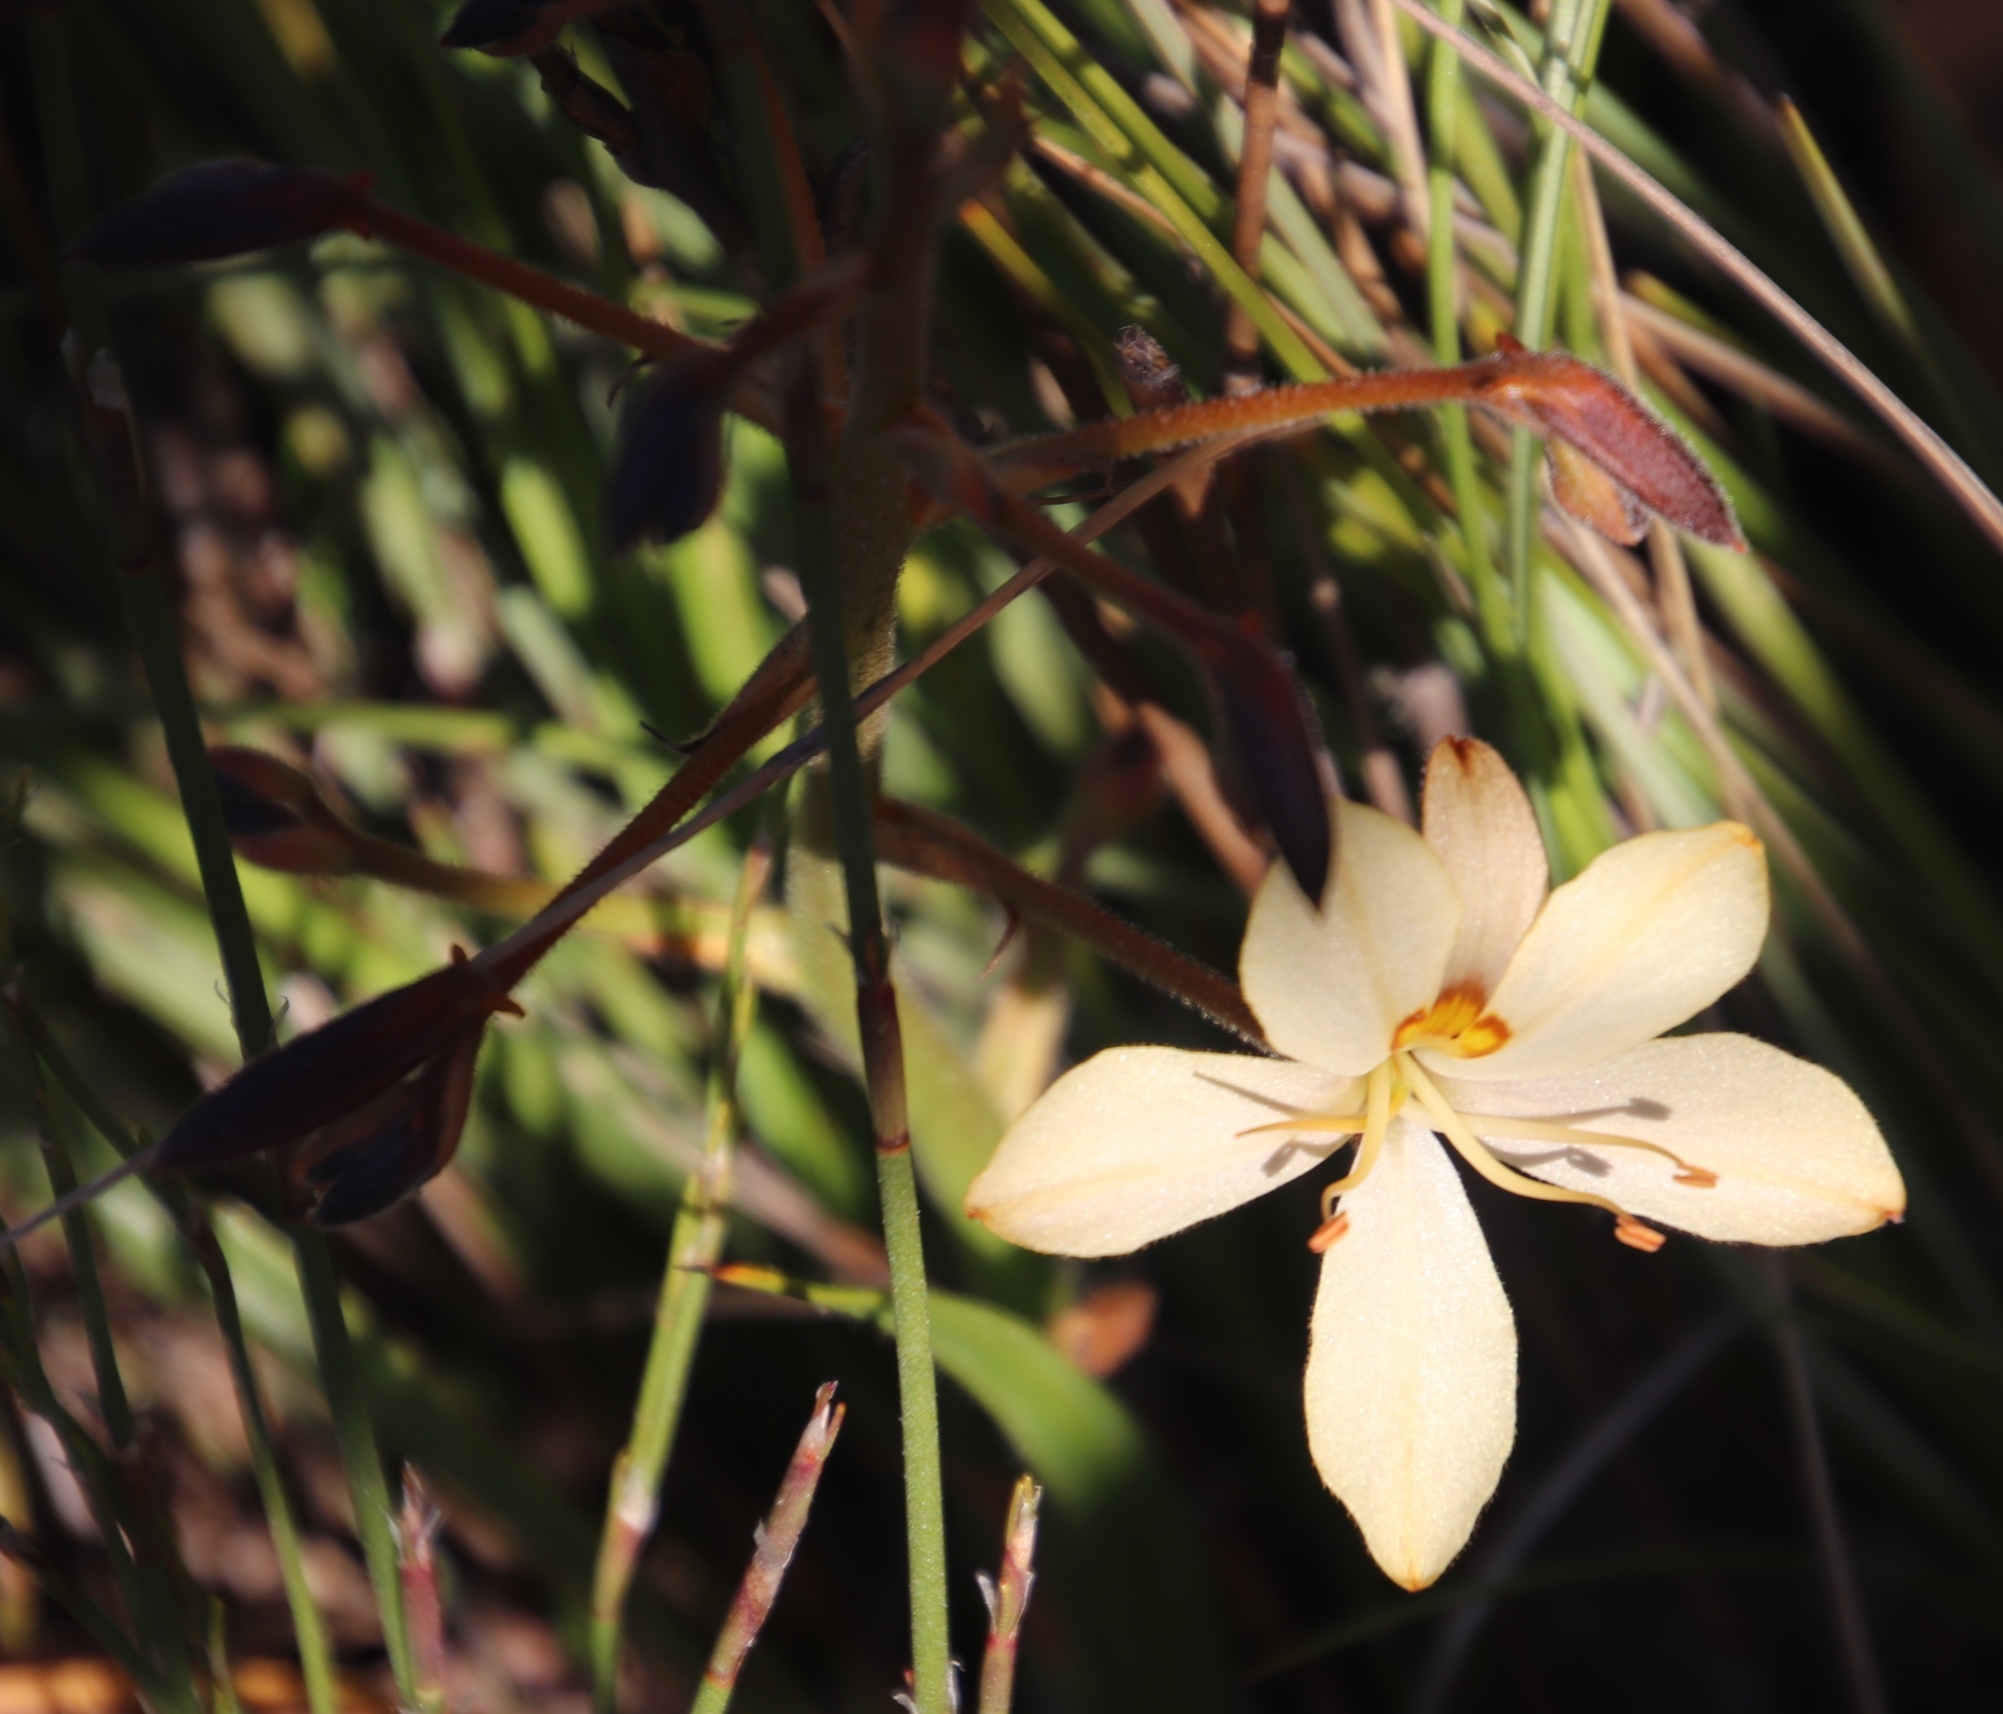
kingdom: Plantae
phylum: Tracheophyta
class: Liliopsida
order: Commelinales
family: Haemodoraceae
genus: Wachendorfia
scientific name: Wachendorfia paniculata
